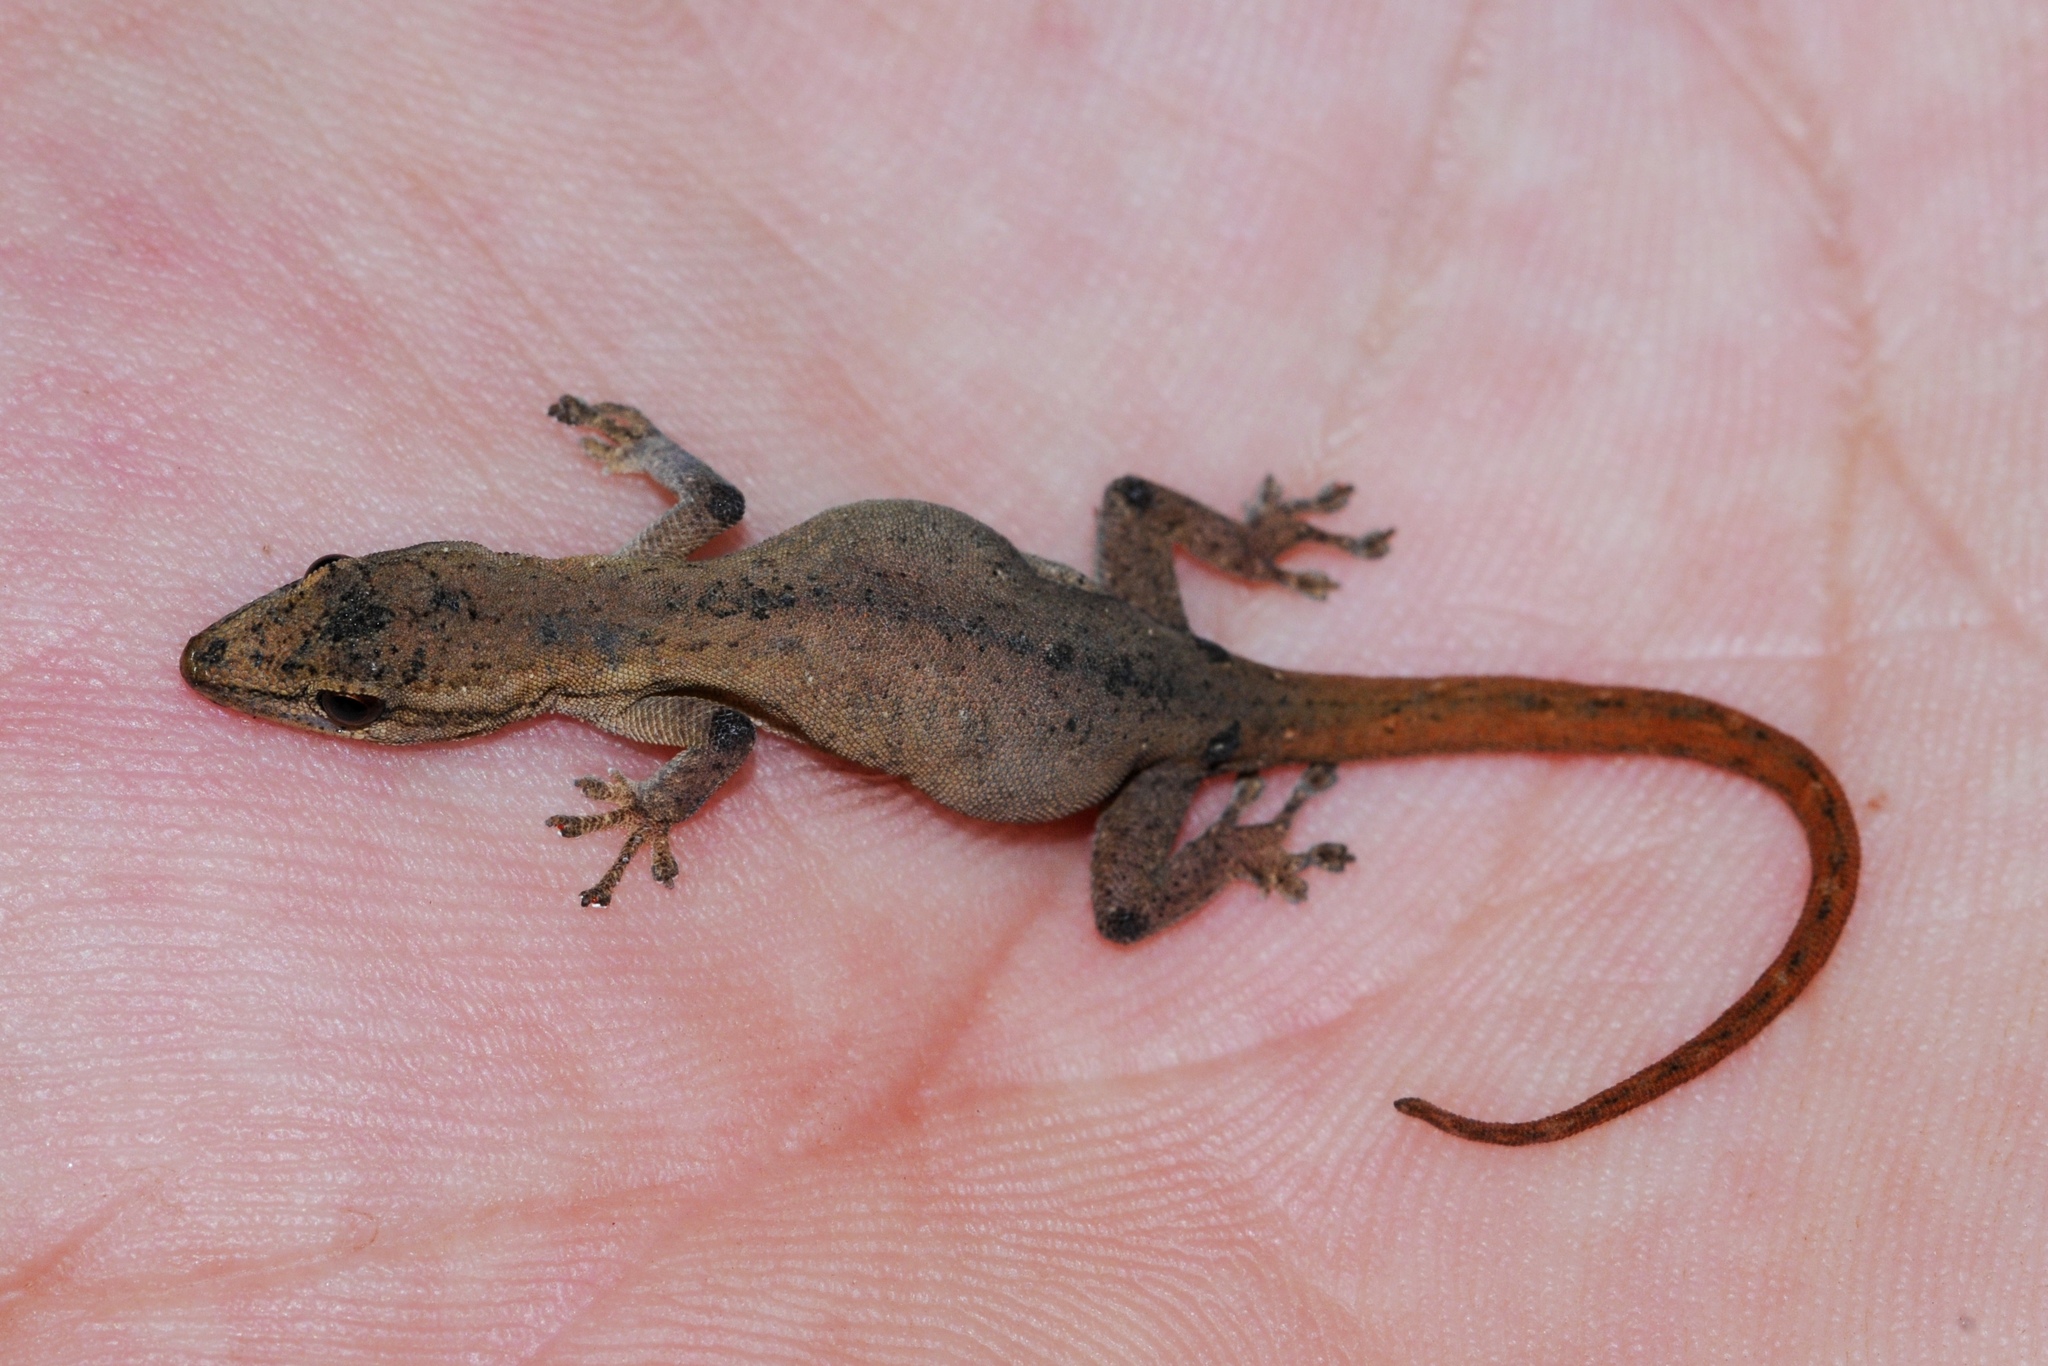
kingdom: Animalia
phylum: Chordata
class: Squamata
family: Gekkonidae
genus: Lygodactylus
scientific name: Lygodactylus grotei
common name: Grote’s dwarf gecko
